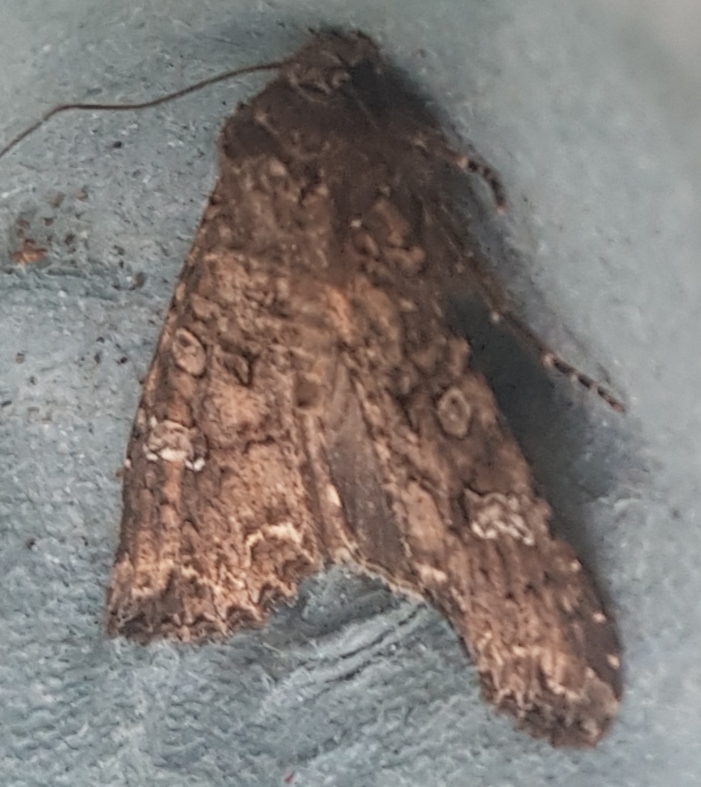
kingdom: Animalia
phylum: Arthropoda
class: Insecta
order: Lepidoptera
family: Noctuidae
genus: Mamestra
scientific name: Mamestra brassicae
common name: Cabbage moth
